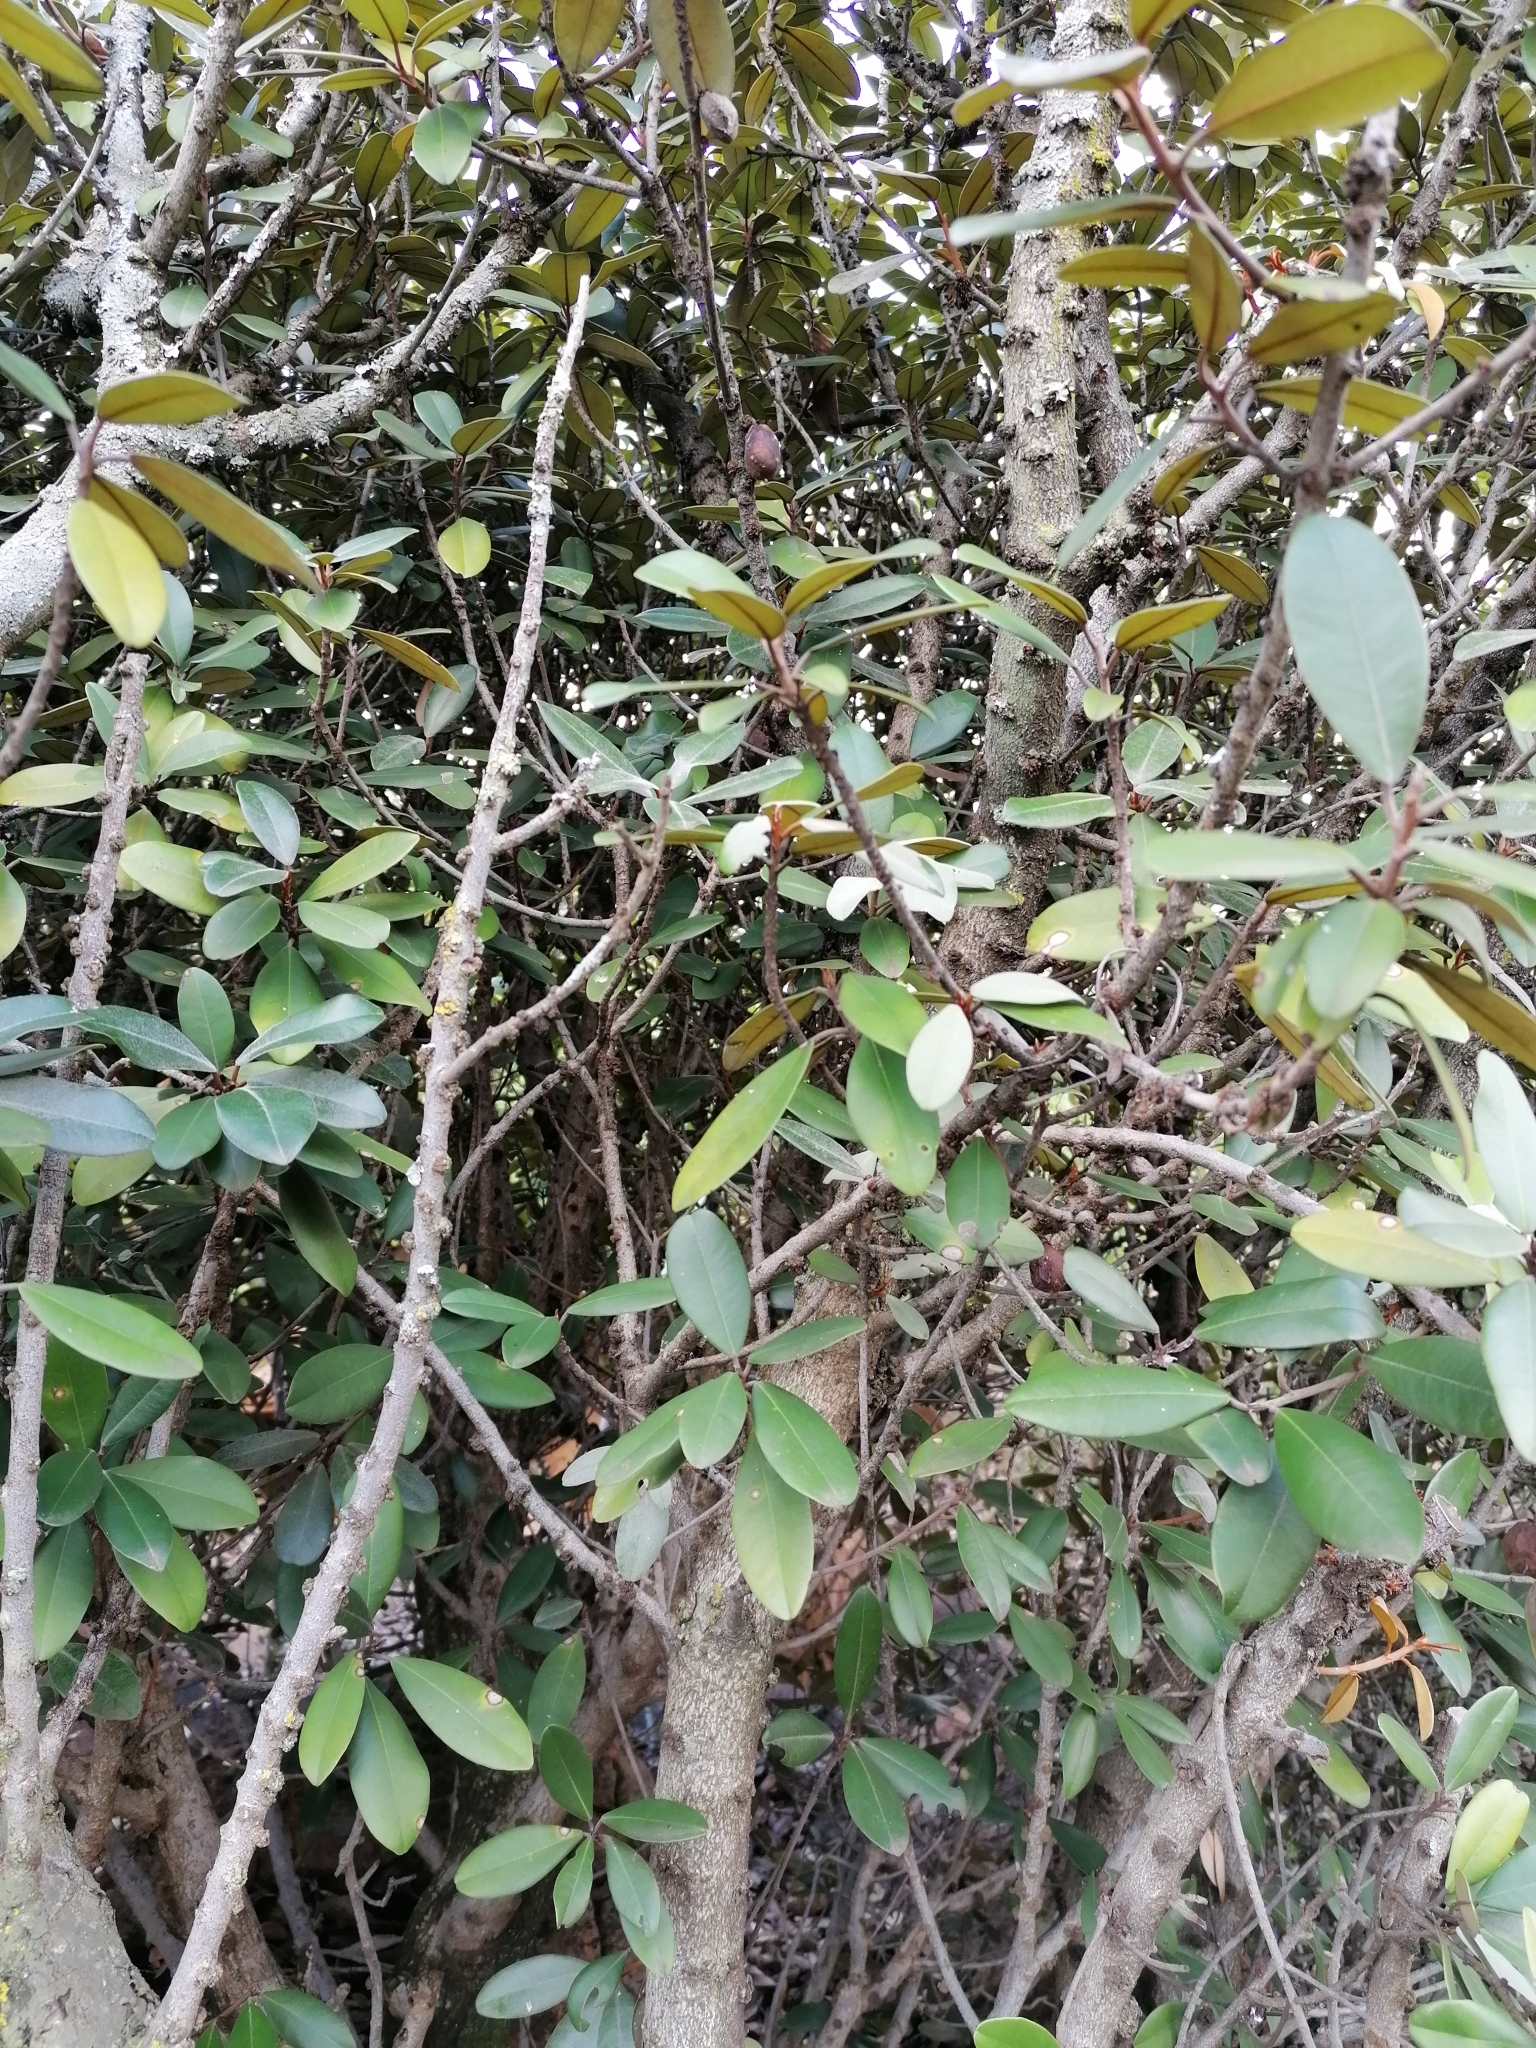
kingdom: Plantae
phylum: Tracheophyta
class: Magnoliopsida
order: Ericales
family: Sapotaceae
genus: Englerophytum
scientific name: Englerophytum magalismontanum
